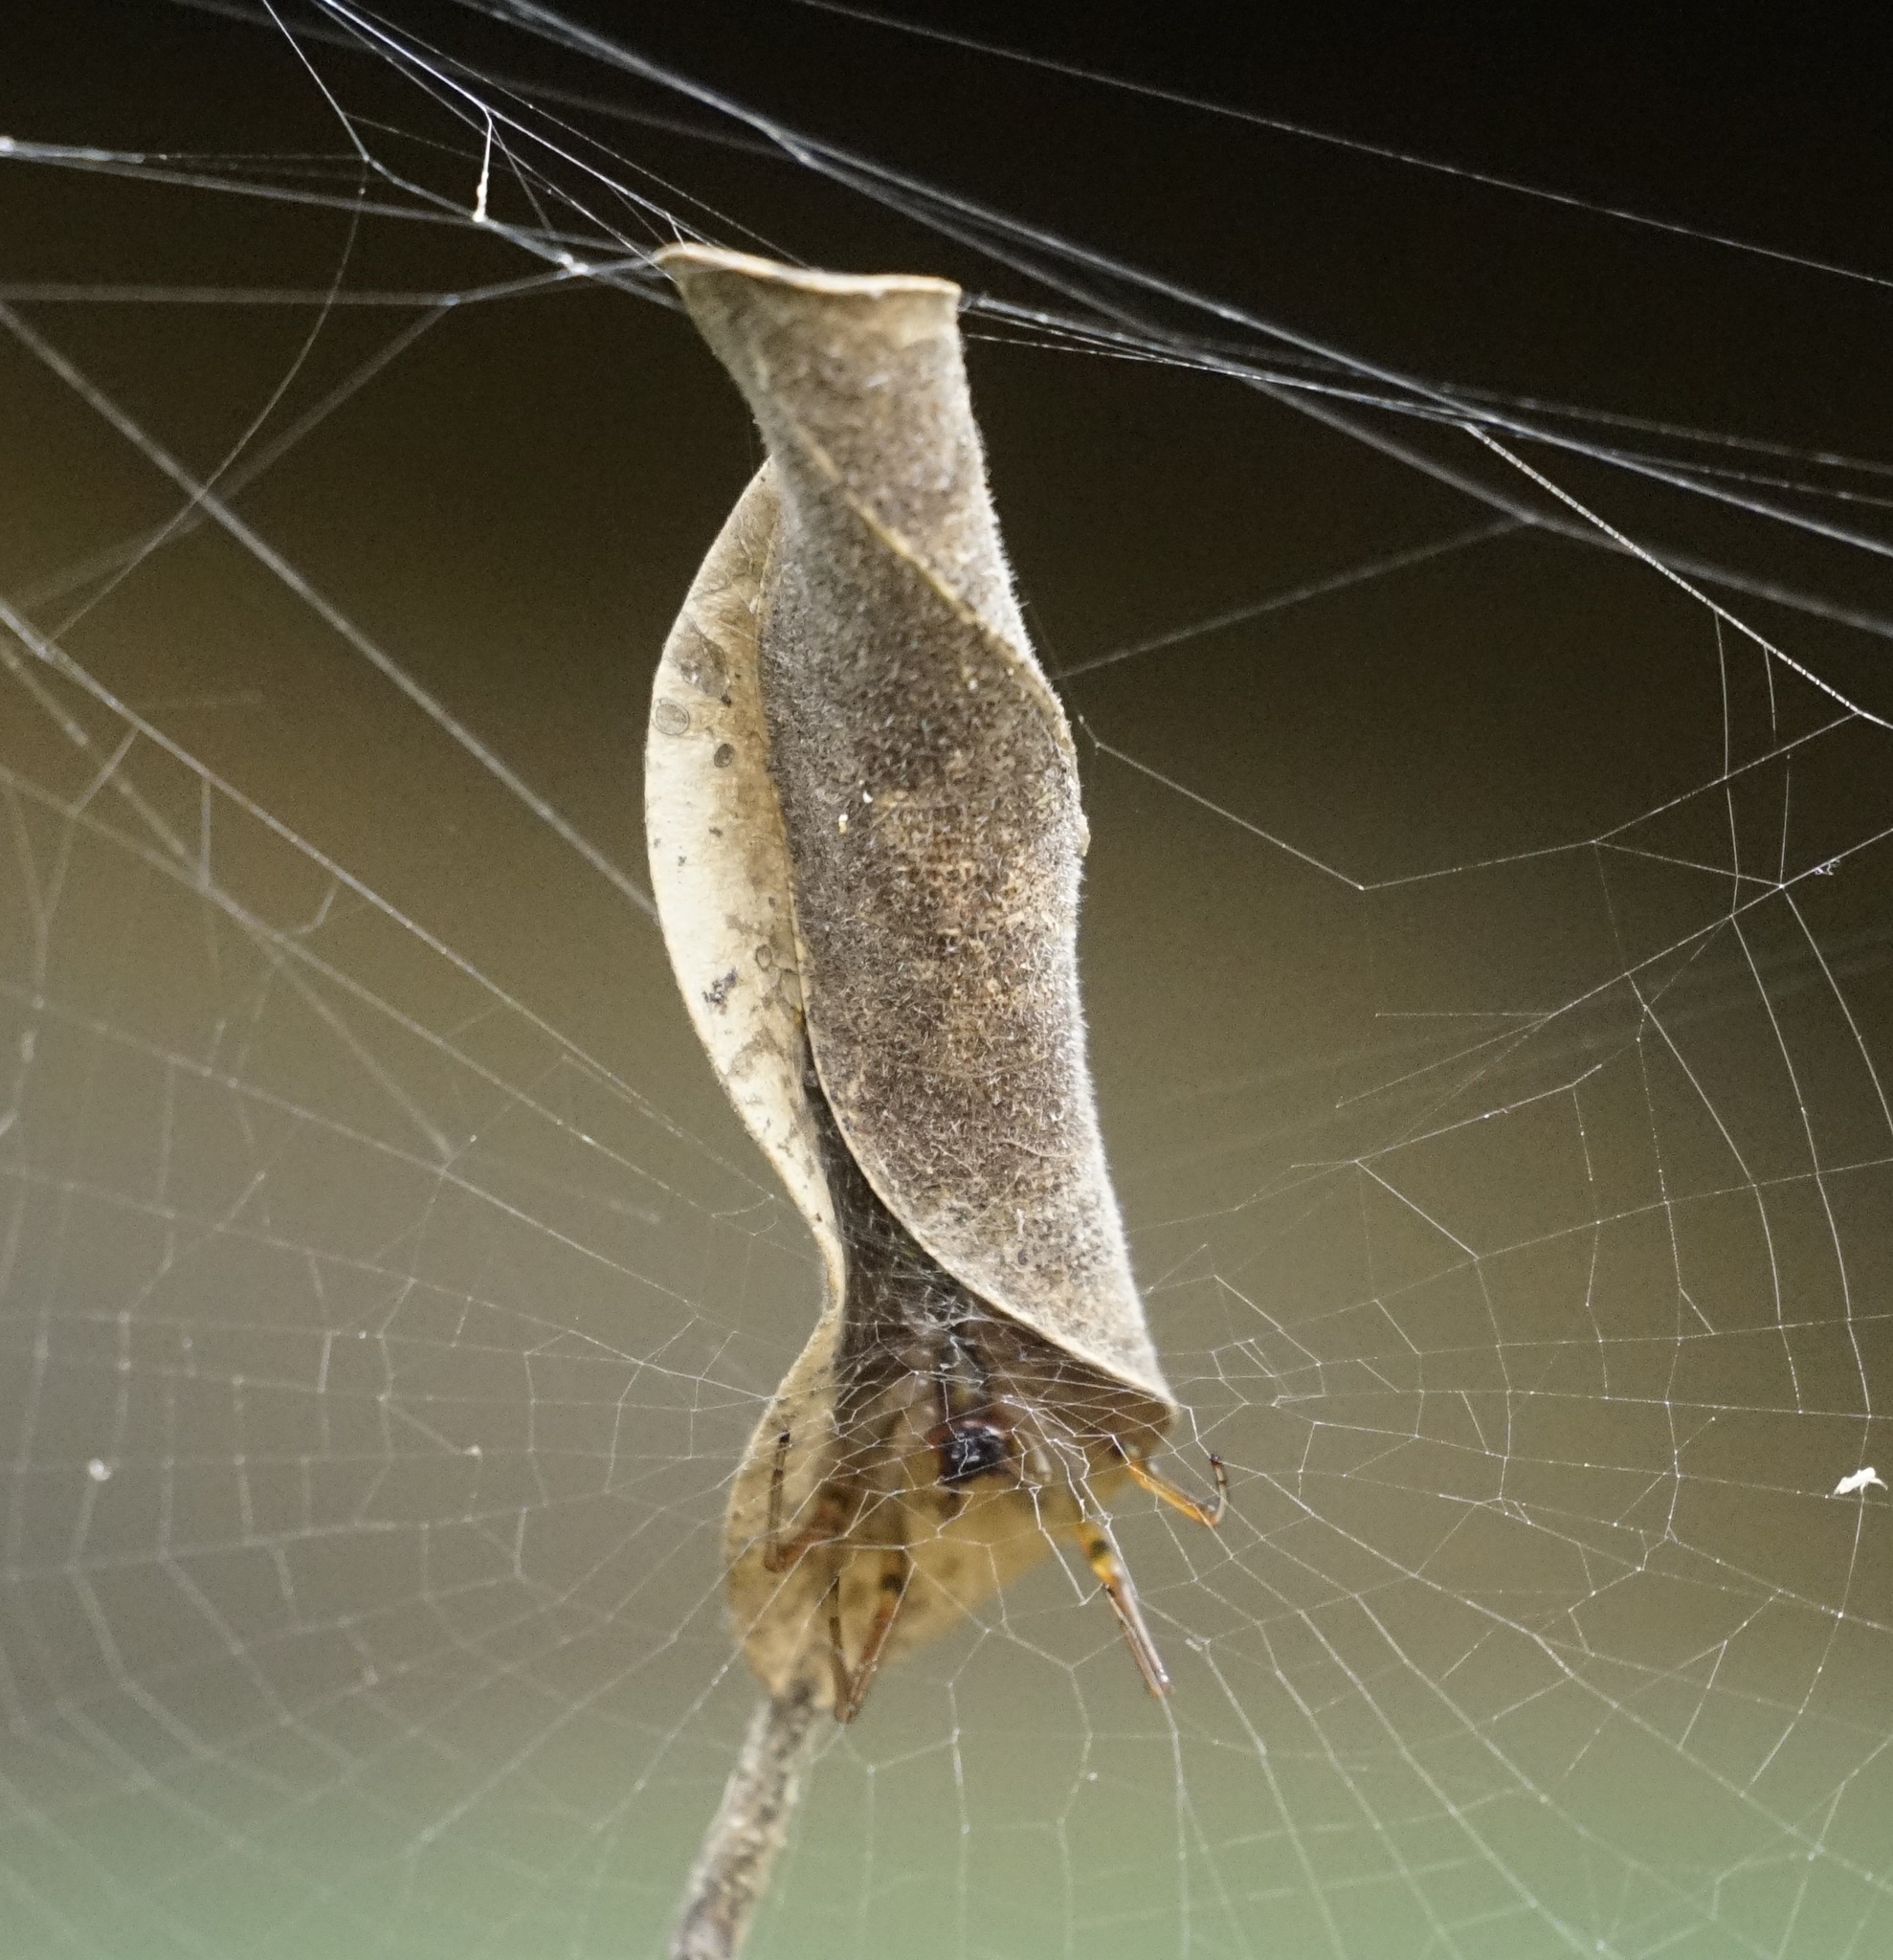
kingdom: Animalia
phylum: Arthropoda
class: Arachnida
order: Araneae
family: Araneidae
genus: Phonognatha
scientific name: Phonognatha graeffei
